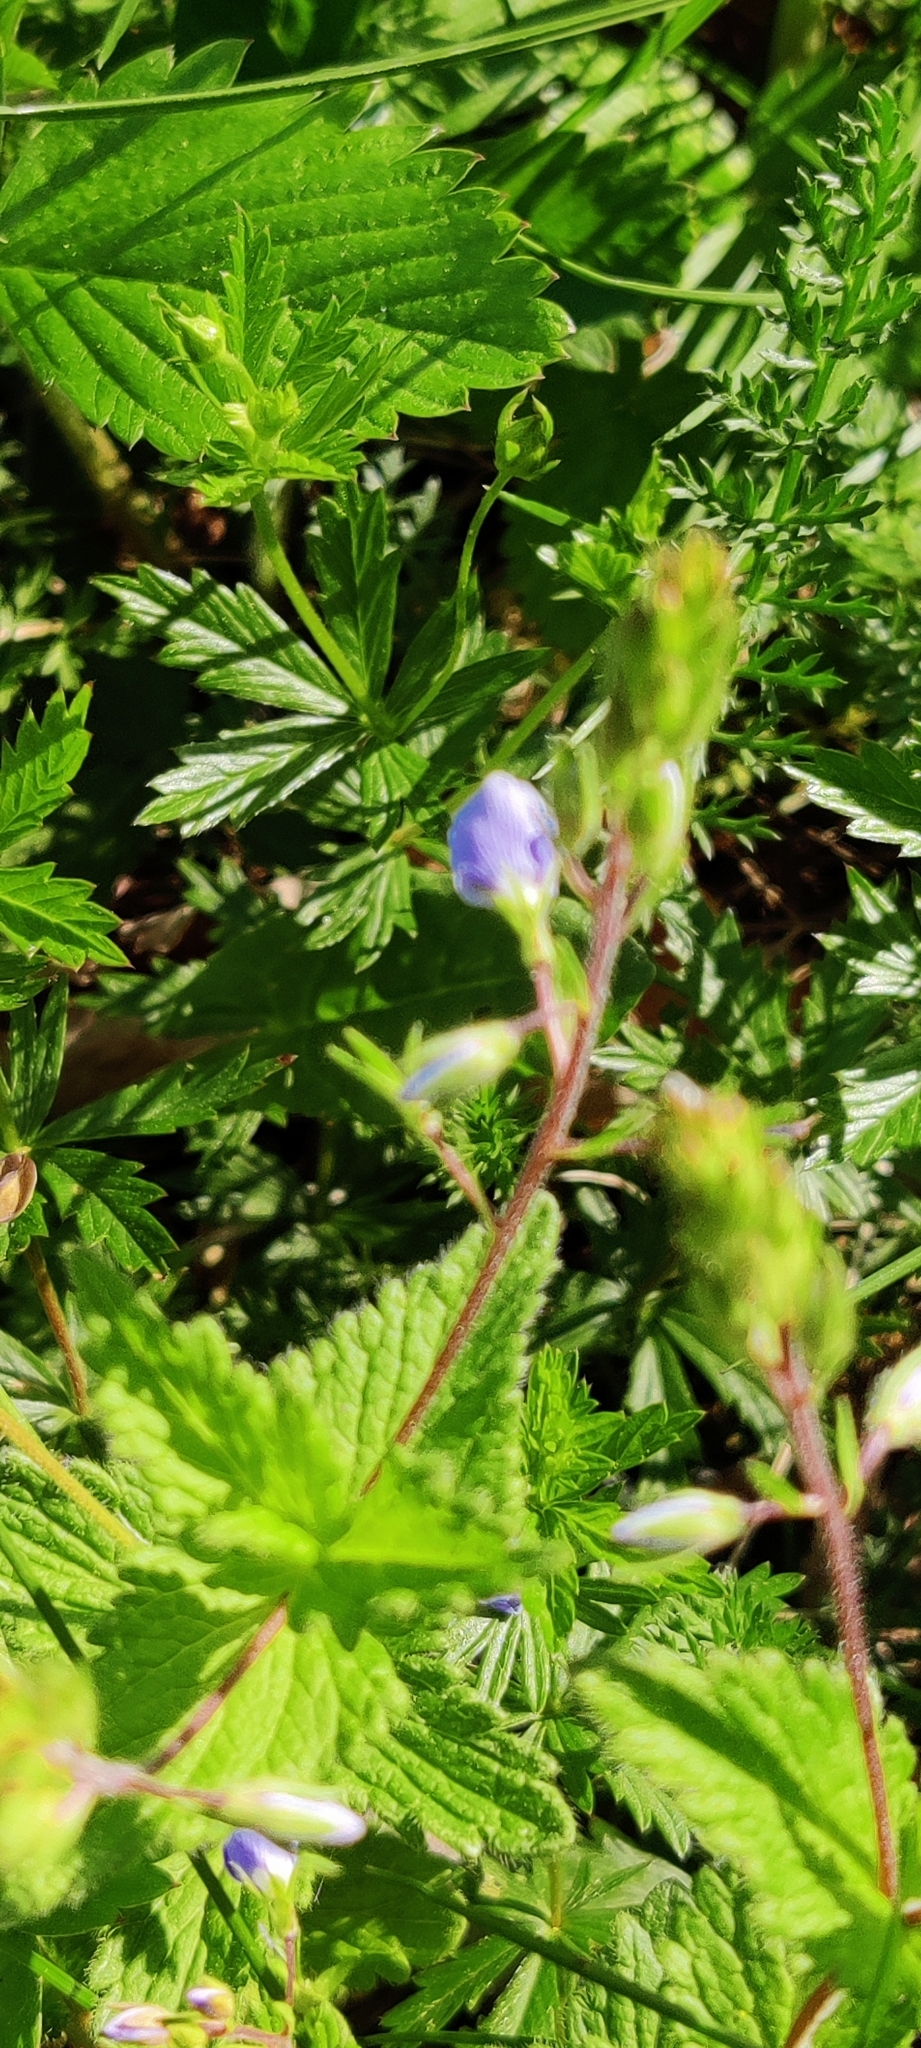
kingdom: Plantae
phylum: Tracheophyta
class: Magnoliopsida
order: Lamiales
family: Plantaginaceae
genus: Veronica
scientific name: Veronica chamaedrys
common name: Germander speedwell
